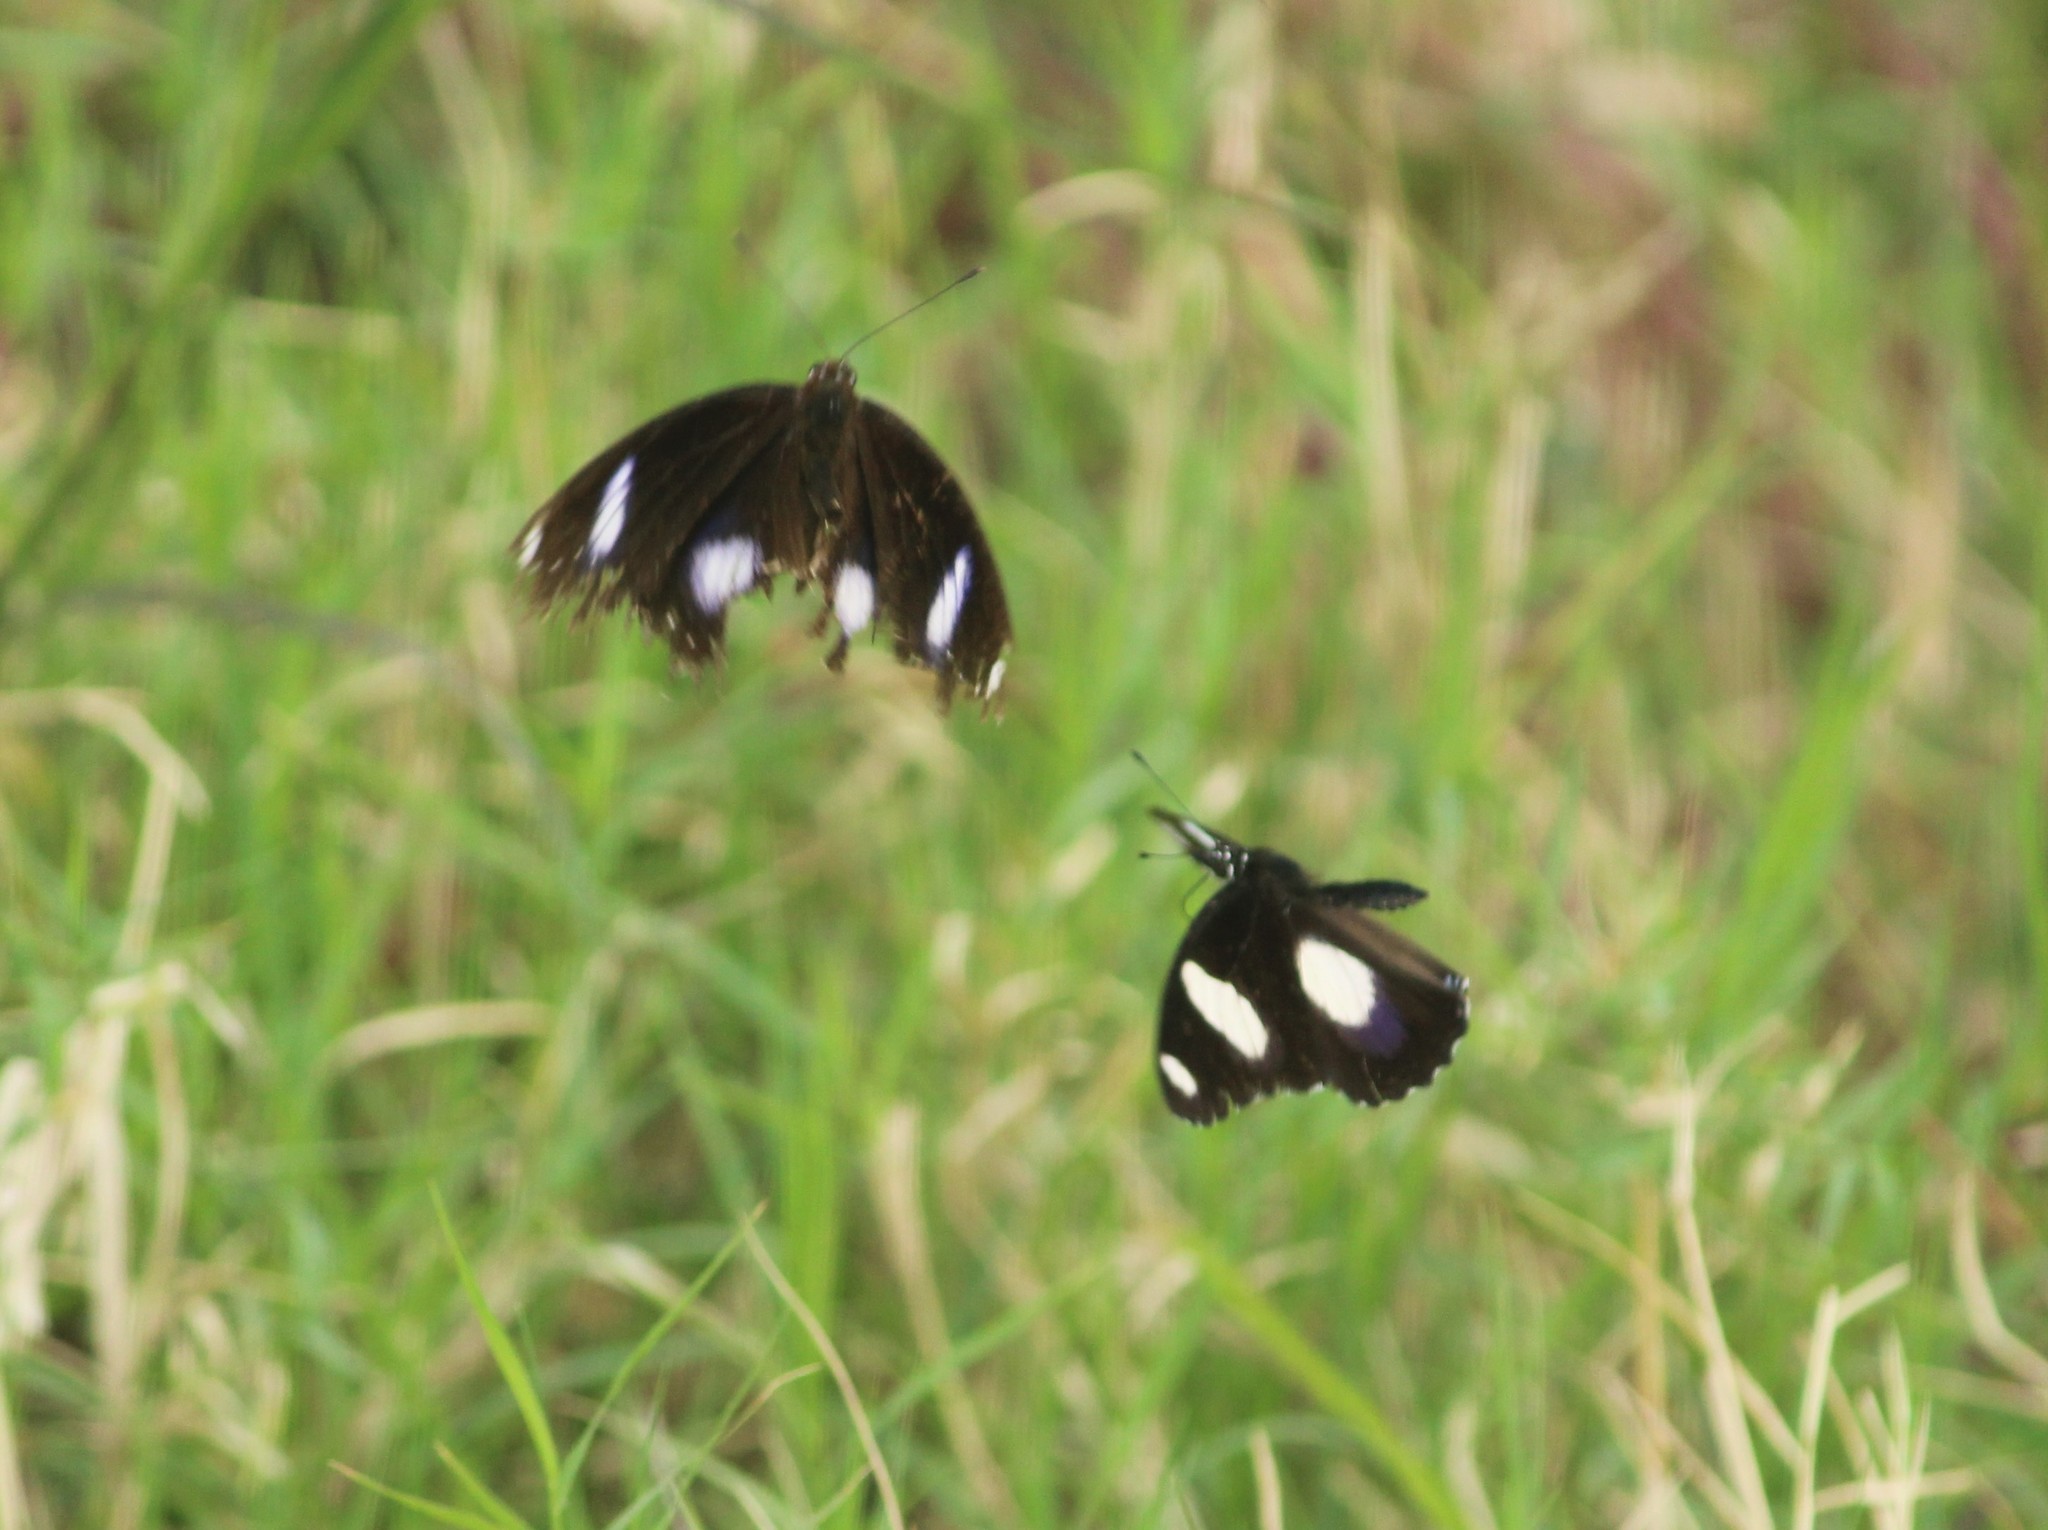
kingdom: Animalia
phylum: Arthropoda
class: Insecta
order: Lepidoptera
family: Nymphalidae
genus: Hypolimnas
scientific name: Hypolimnas misippus
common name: False plain tiger
